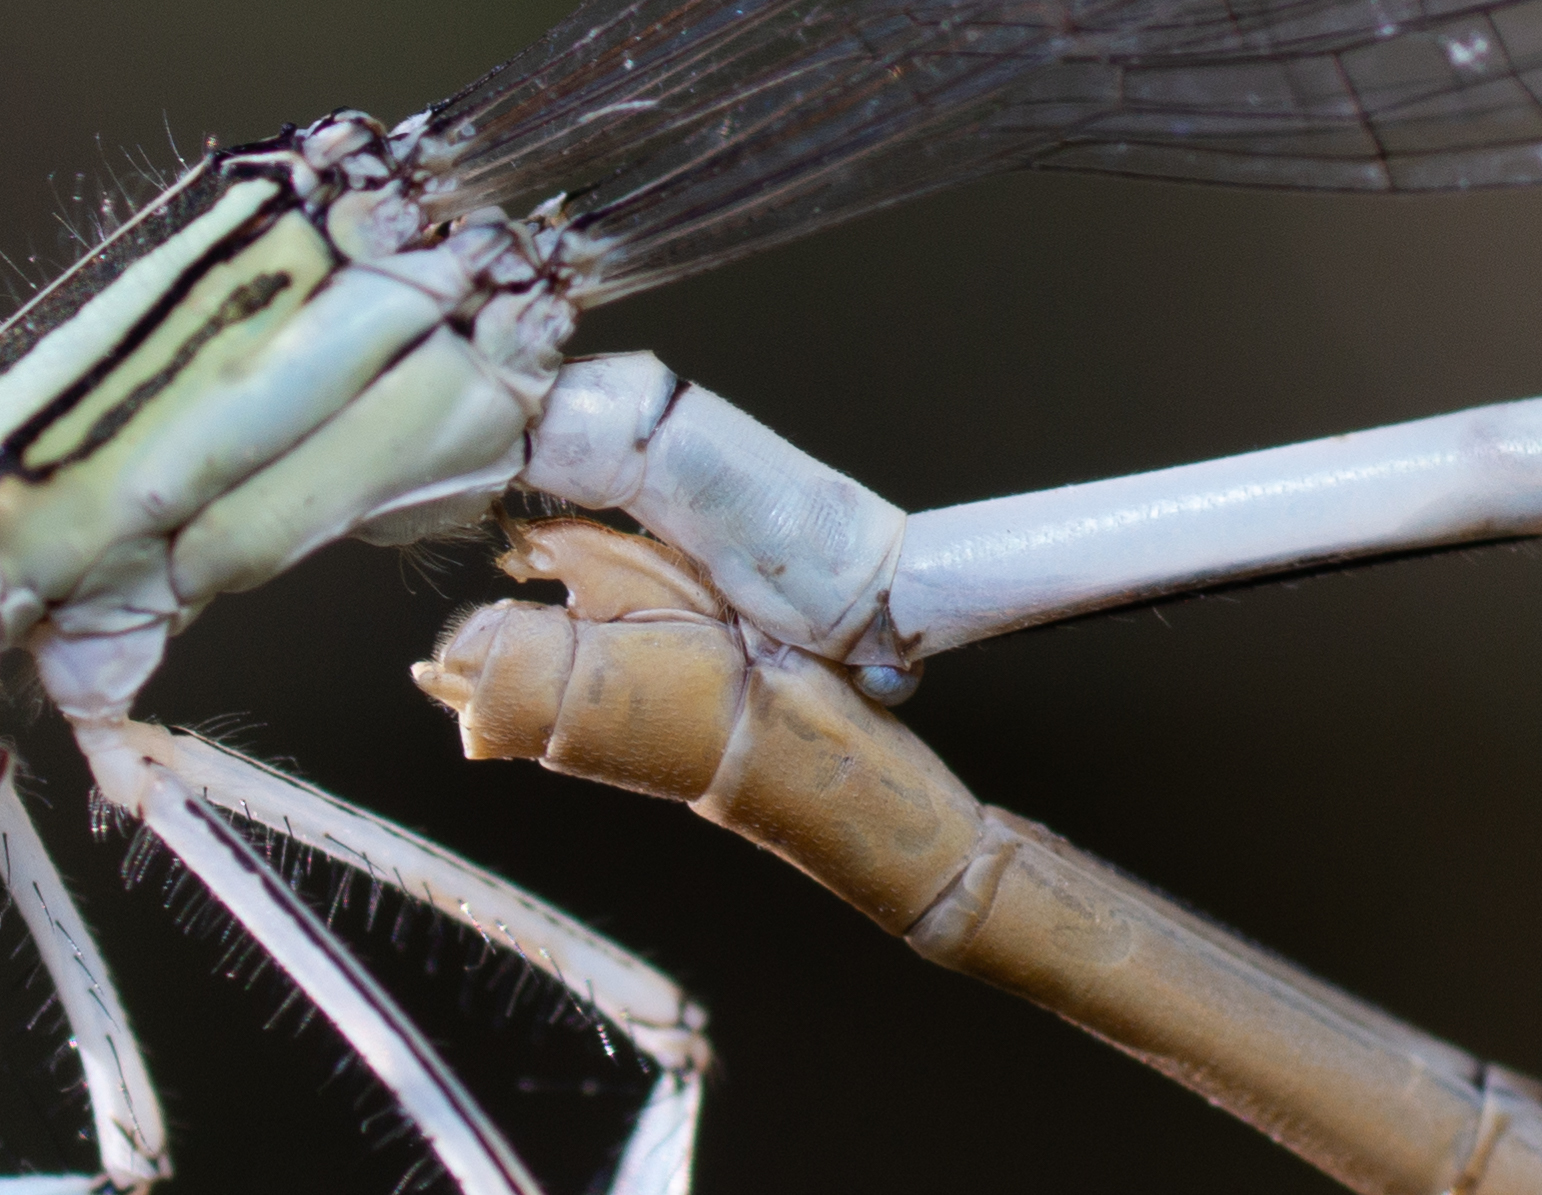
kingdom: Animalia
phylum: Arthropoda
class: Insecta
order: Odonata
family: Platycnemididae
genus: Platycnemis
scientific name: Platycnemis latipes
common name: White featherleg
